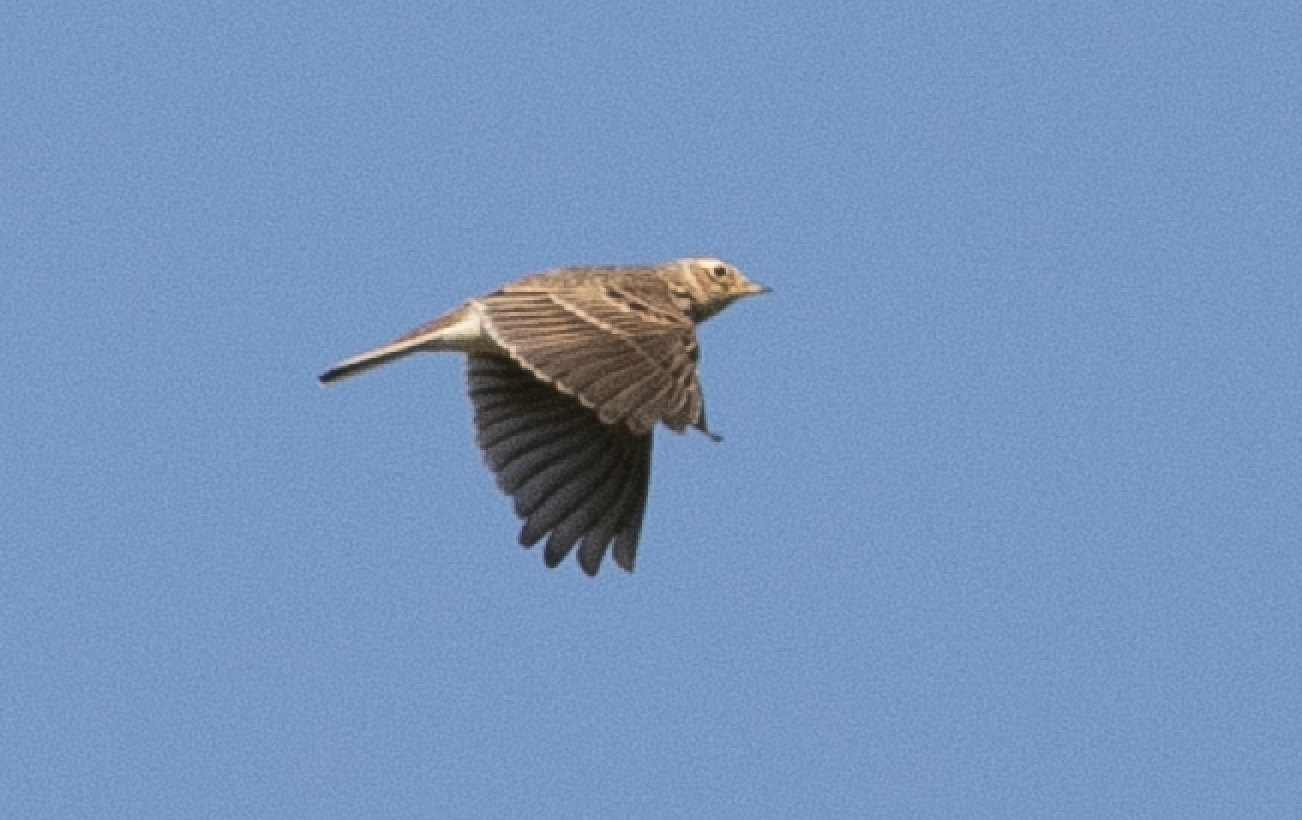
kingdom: Animalia
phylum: Chordata
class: Aves
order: Passeriformes
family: Alaudidae
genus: Alauda
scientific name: Alauda arvensis
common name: Eurasian skylark
